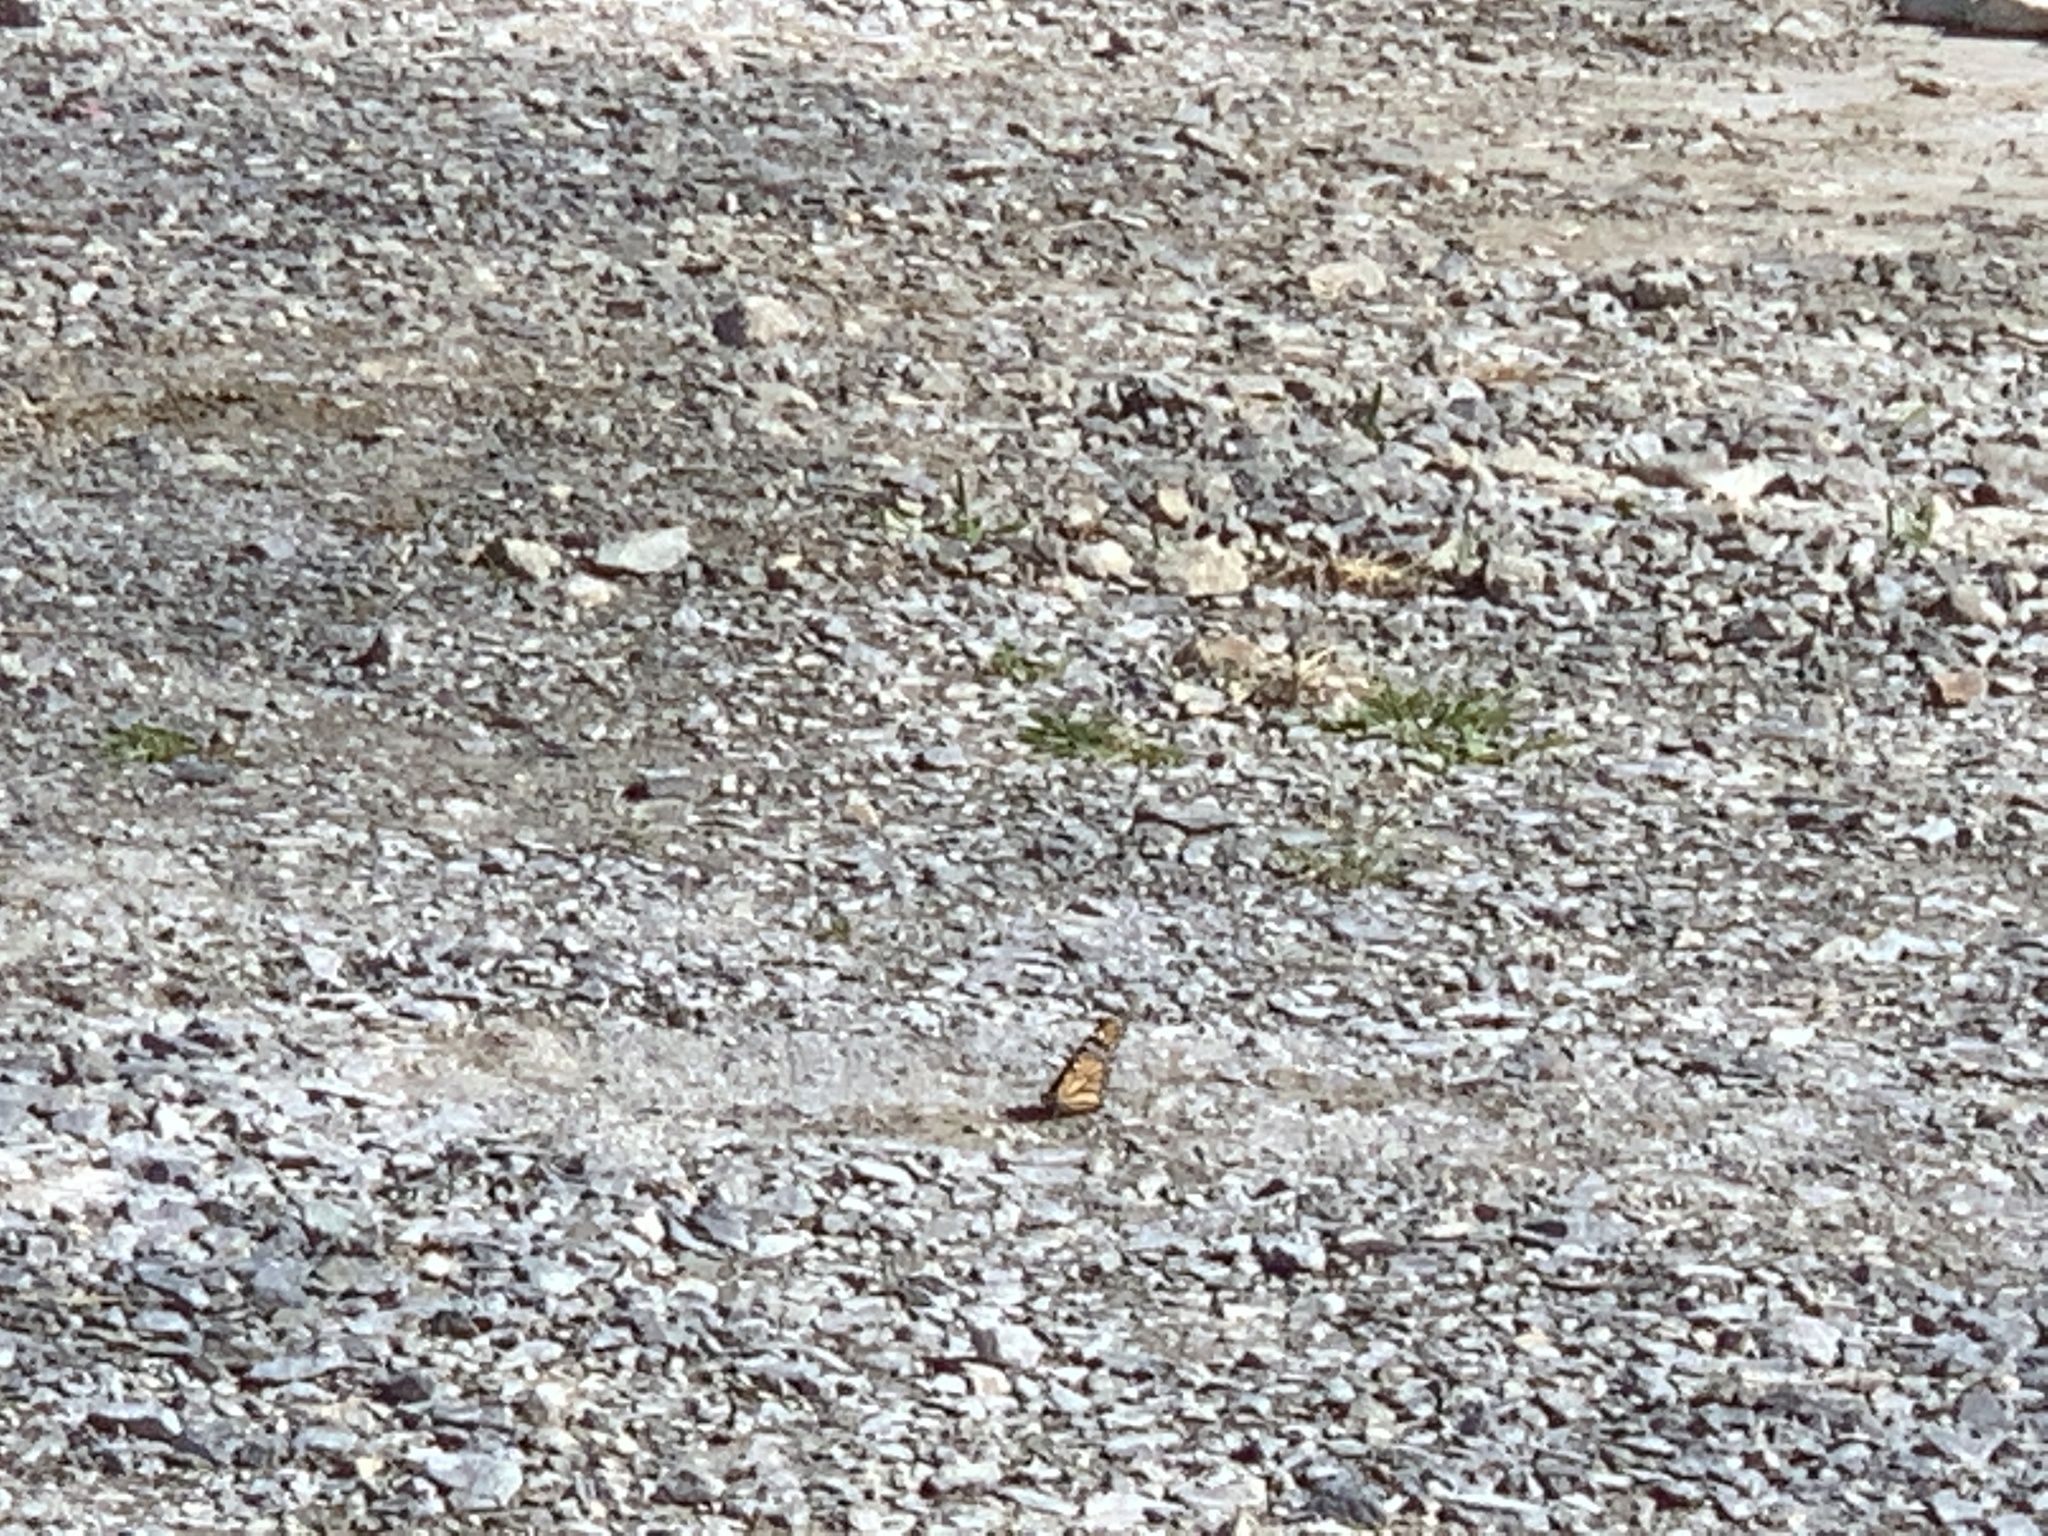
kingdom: Animalia
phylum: Arthropoda
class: Insecta
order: Lepidoptera
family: Nymphalidae
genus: Danaus
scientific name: Danaus plexippus
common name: Monarch
